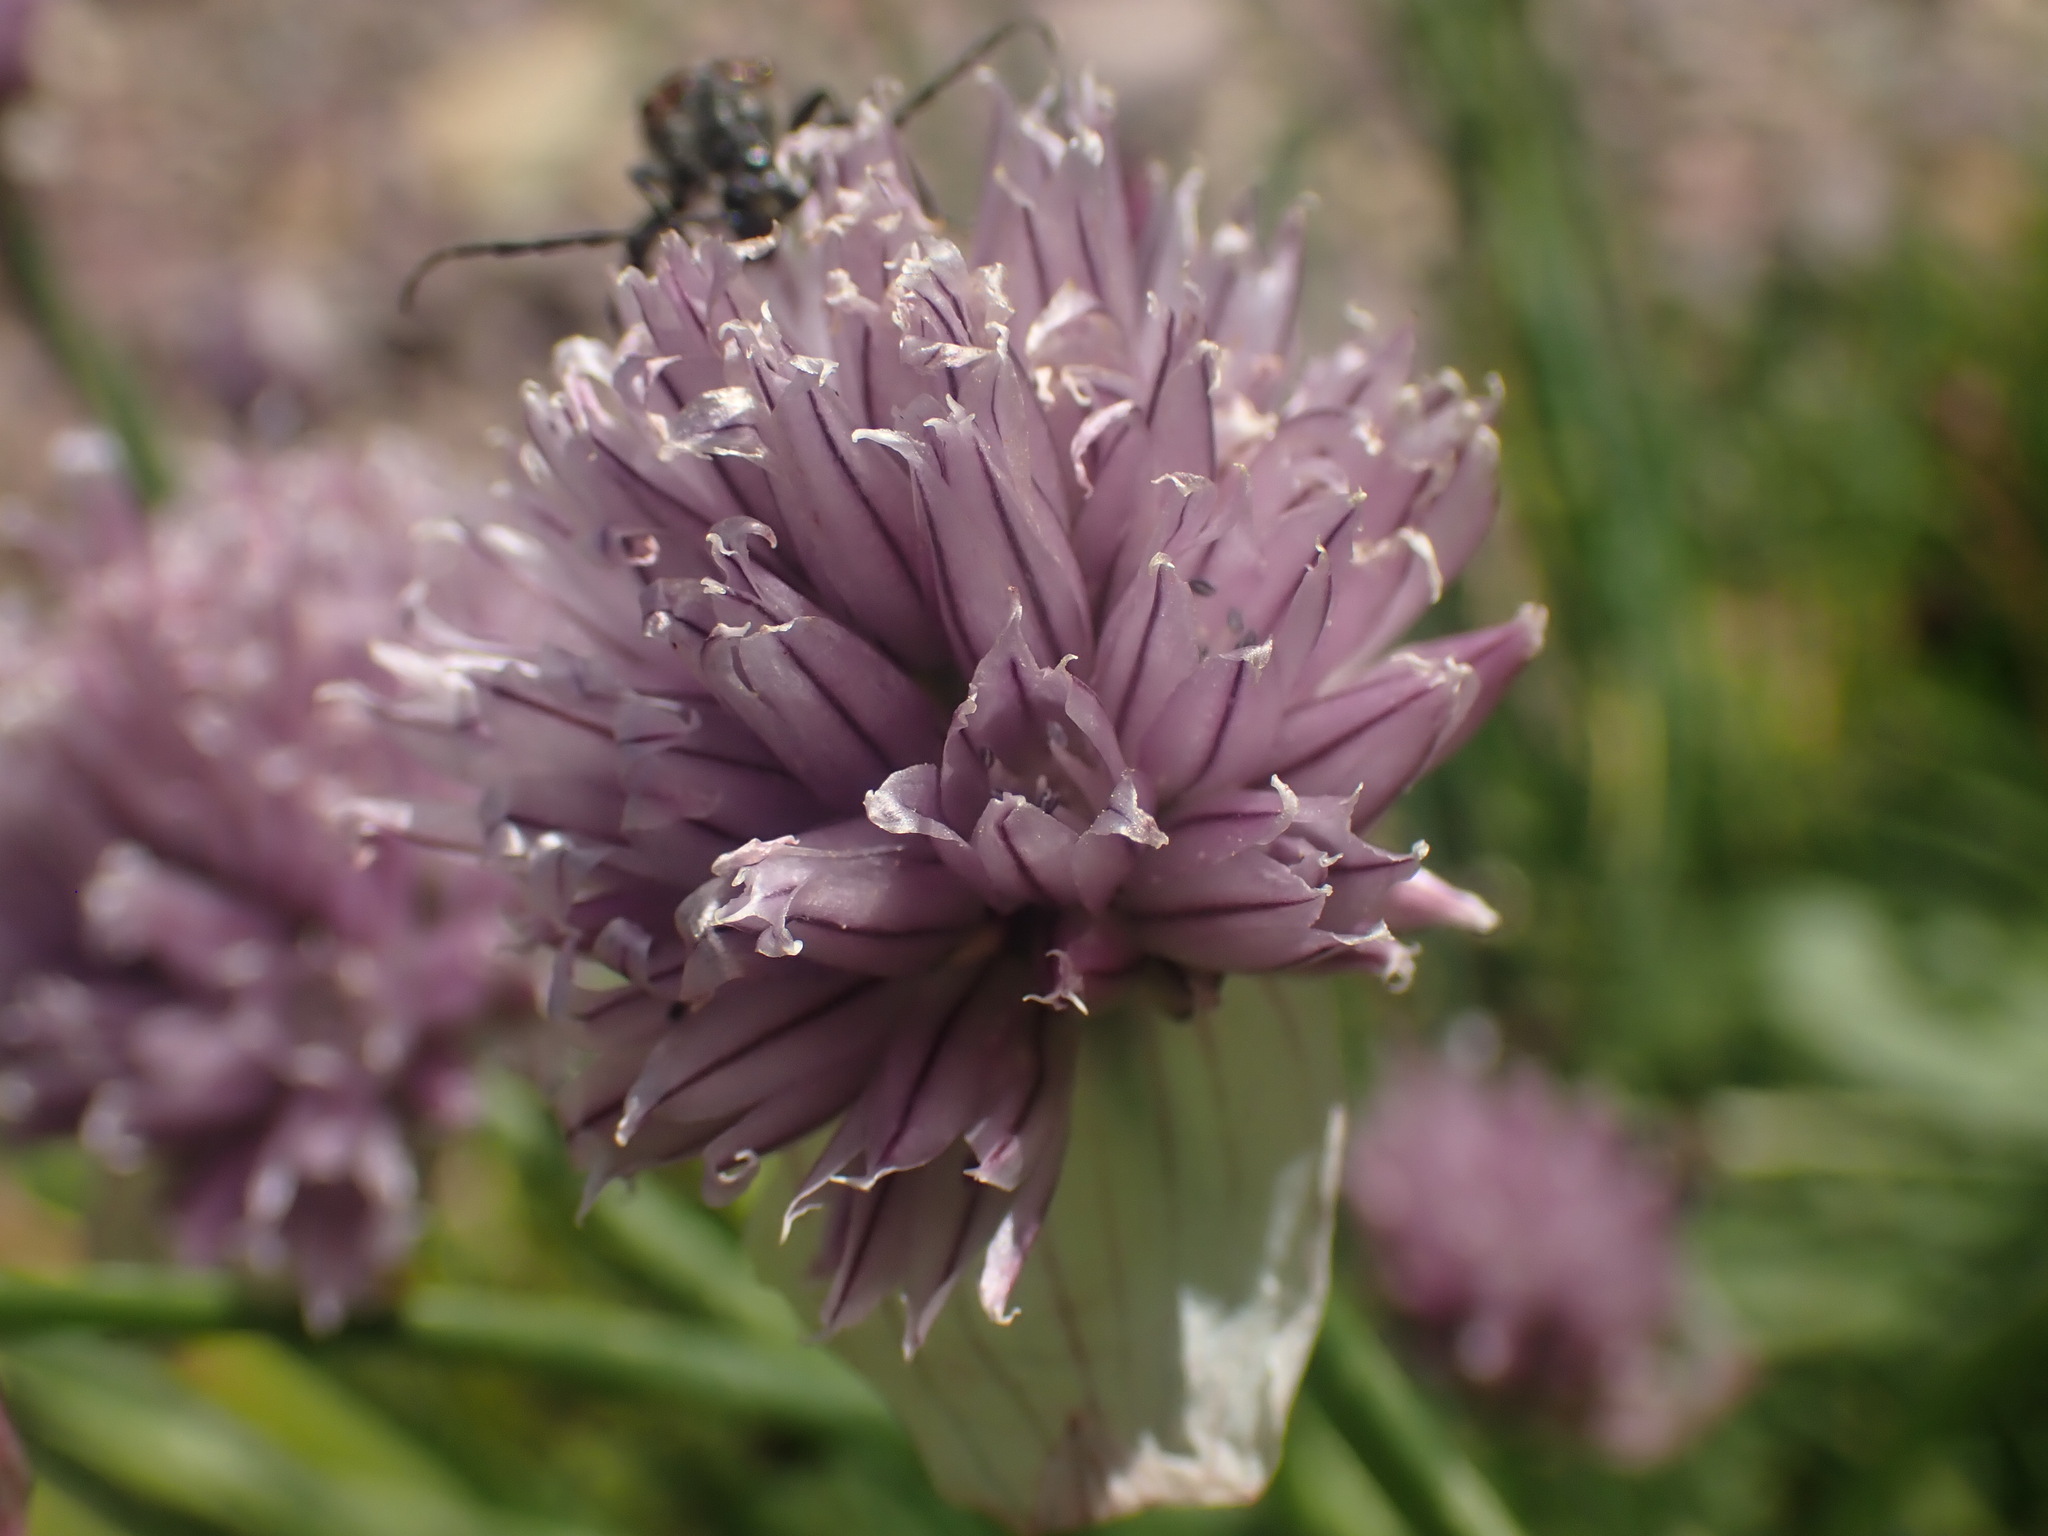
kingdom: Plantae
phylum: Tracheophyta
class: Liliopsida
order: Asparagales
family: Amaryllidaceae
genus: Allium
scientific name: Allium schoenoprasum
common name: Chives
